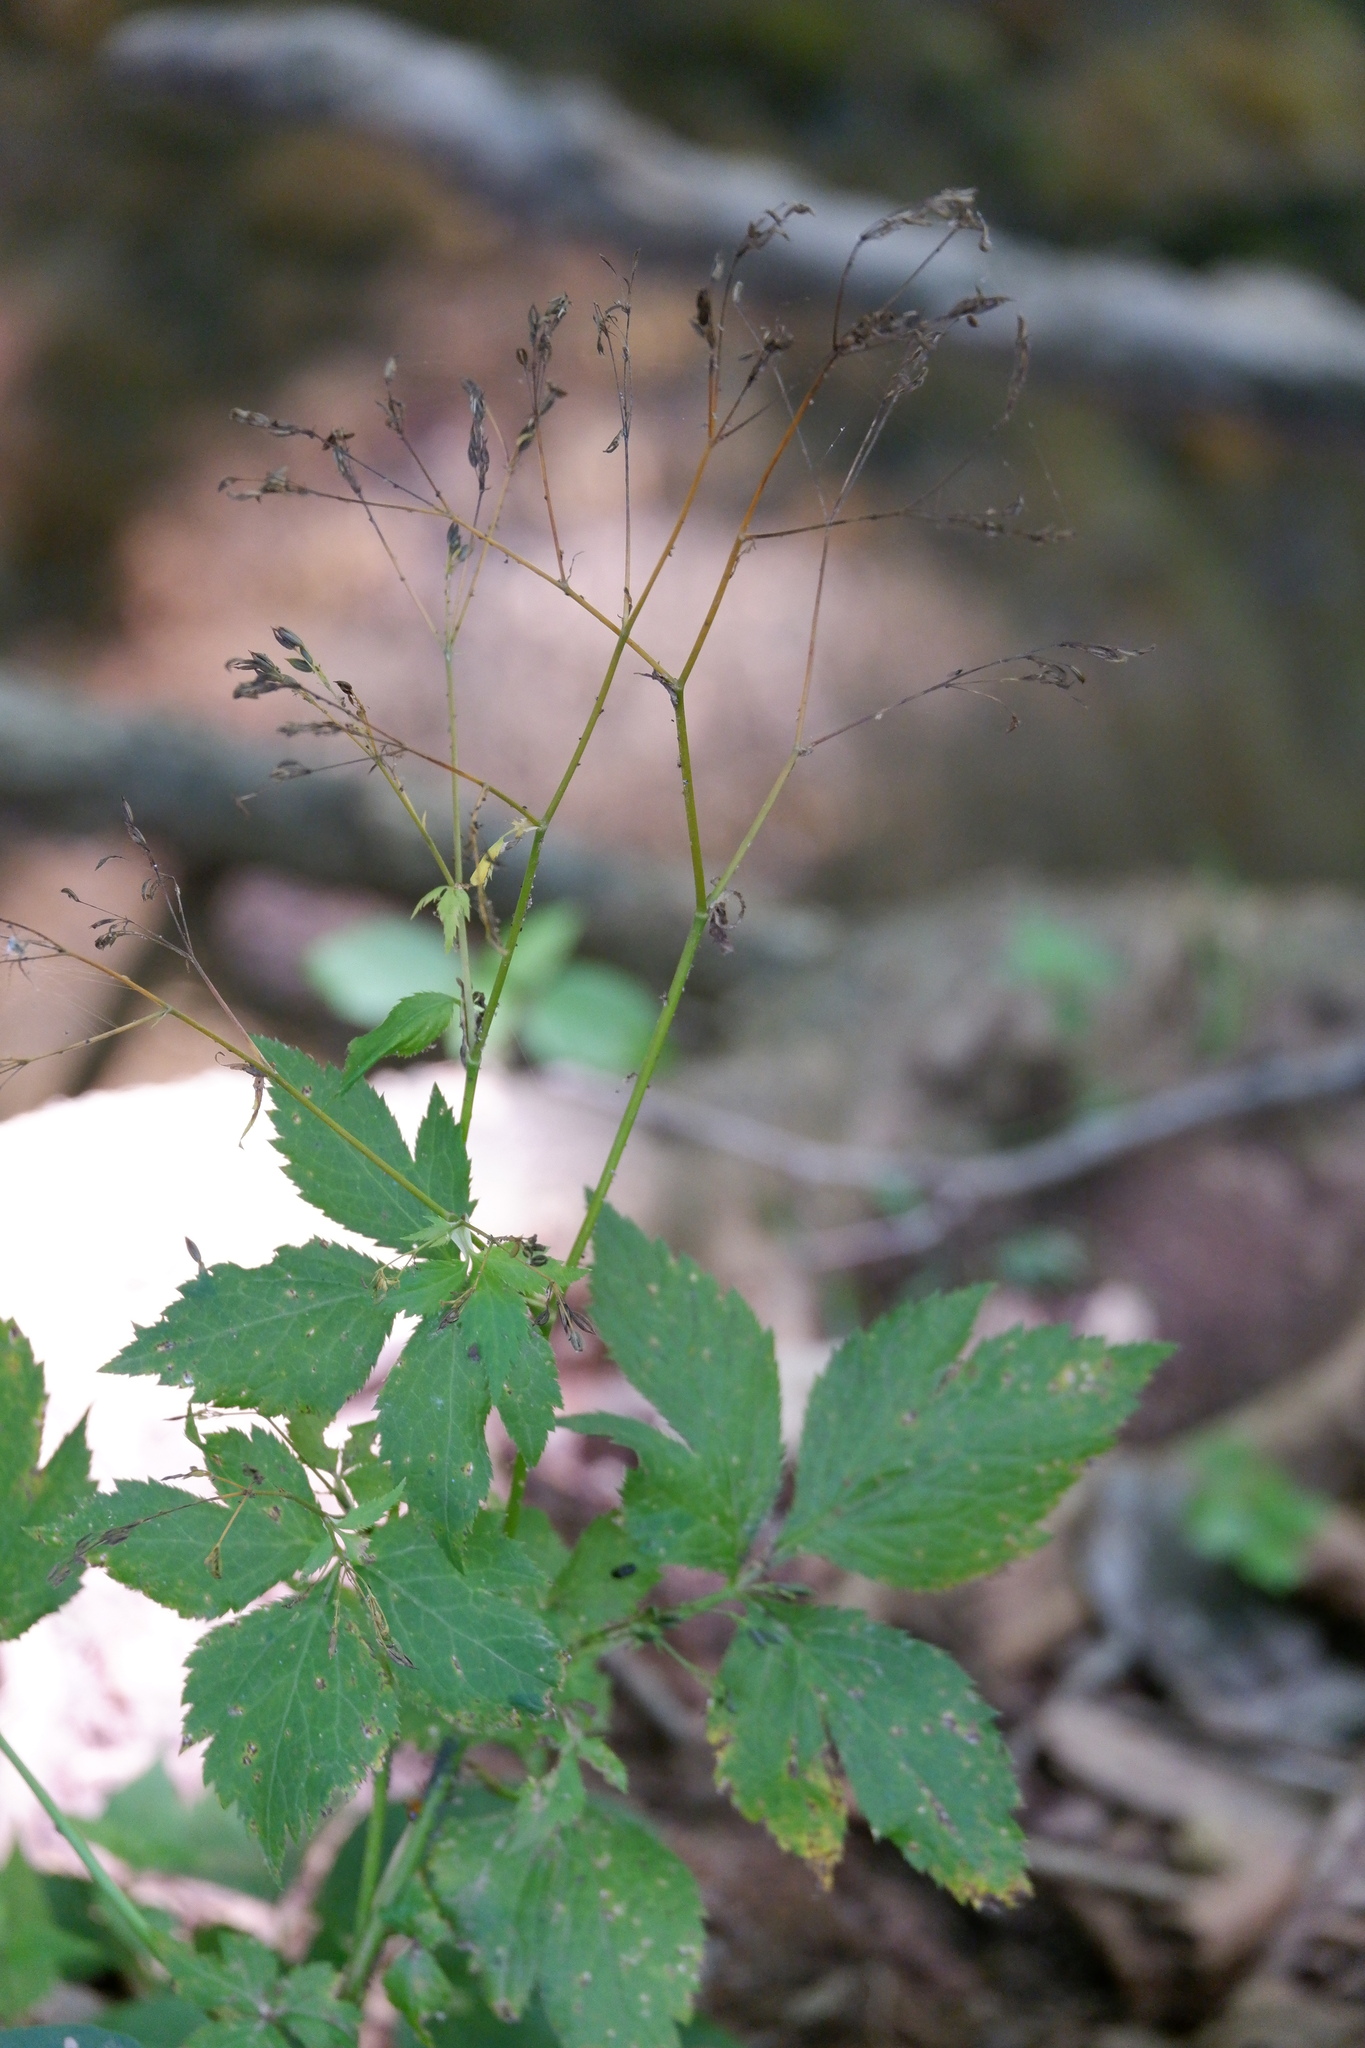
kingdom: Plantae
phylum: Tracheophyta
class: Magnoliopsida
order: Apiales
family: Apiaceae
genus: Cryptotaenia
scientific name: Cryptotaenia canadensis
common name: Honewort
